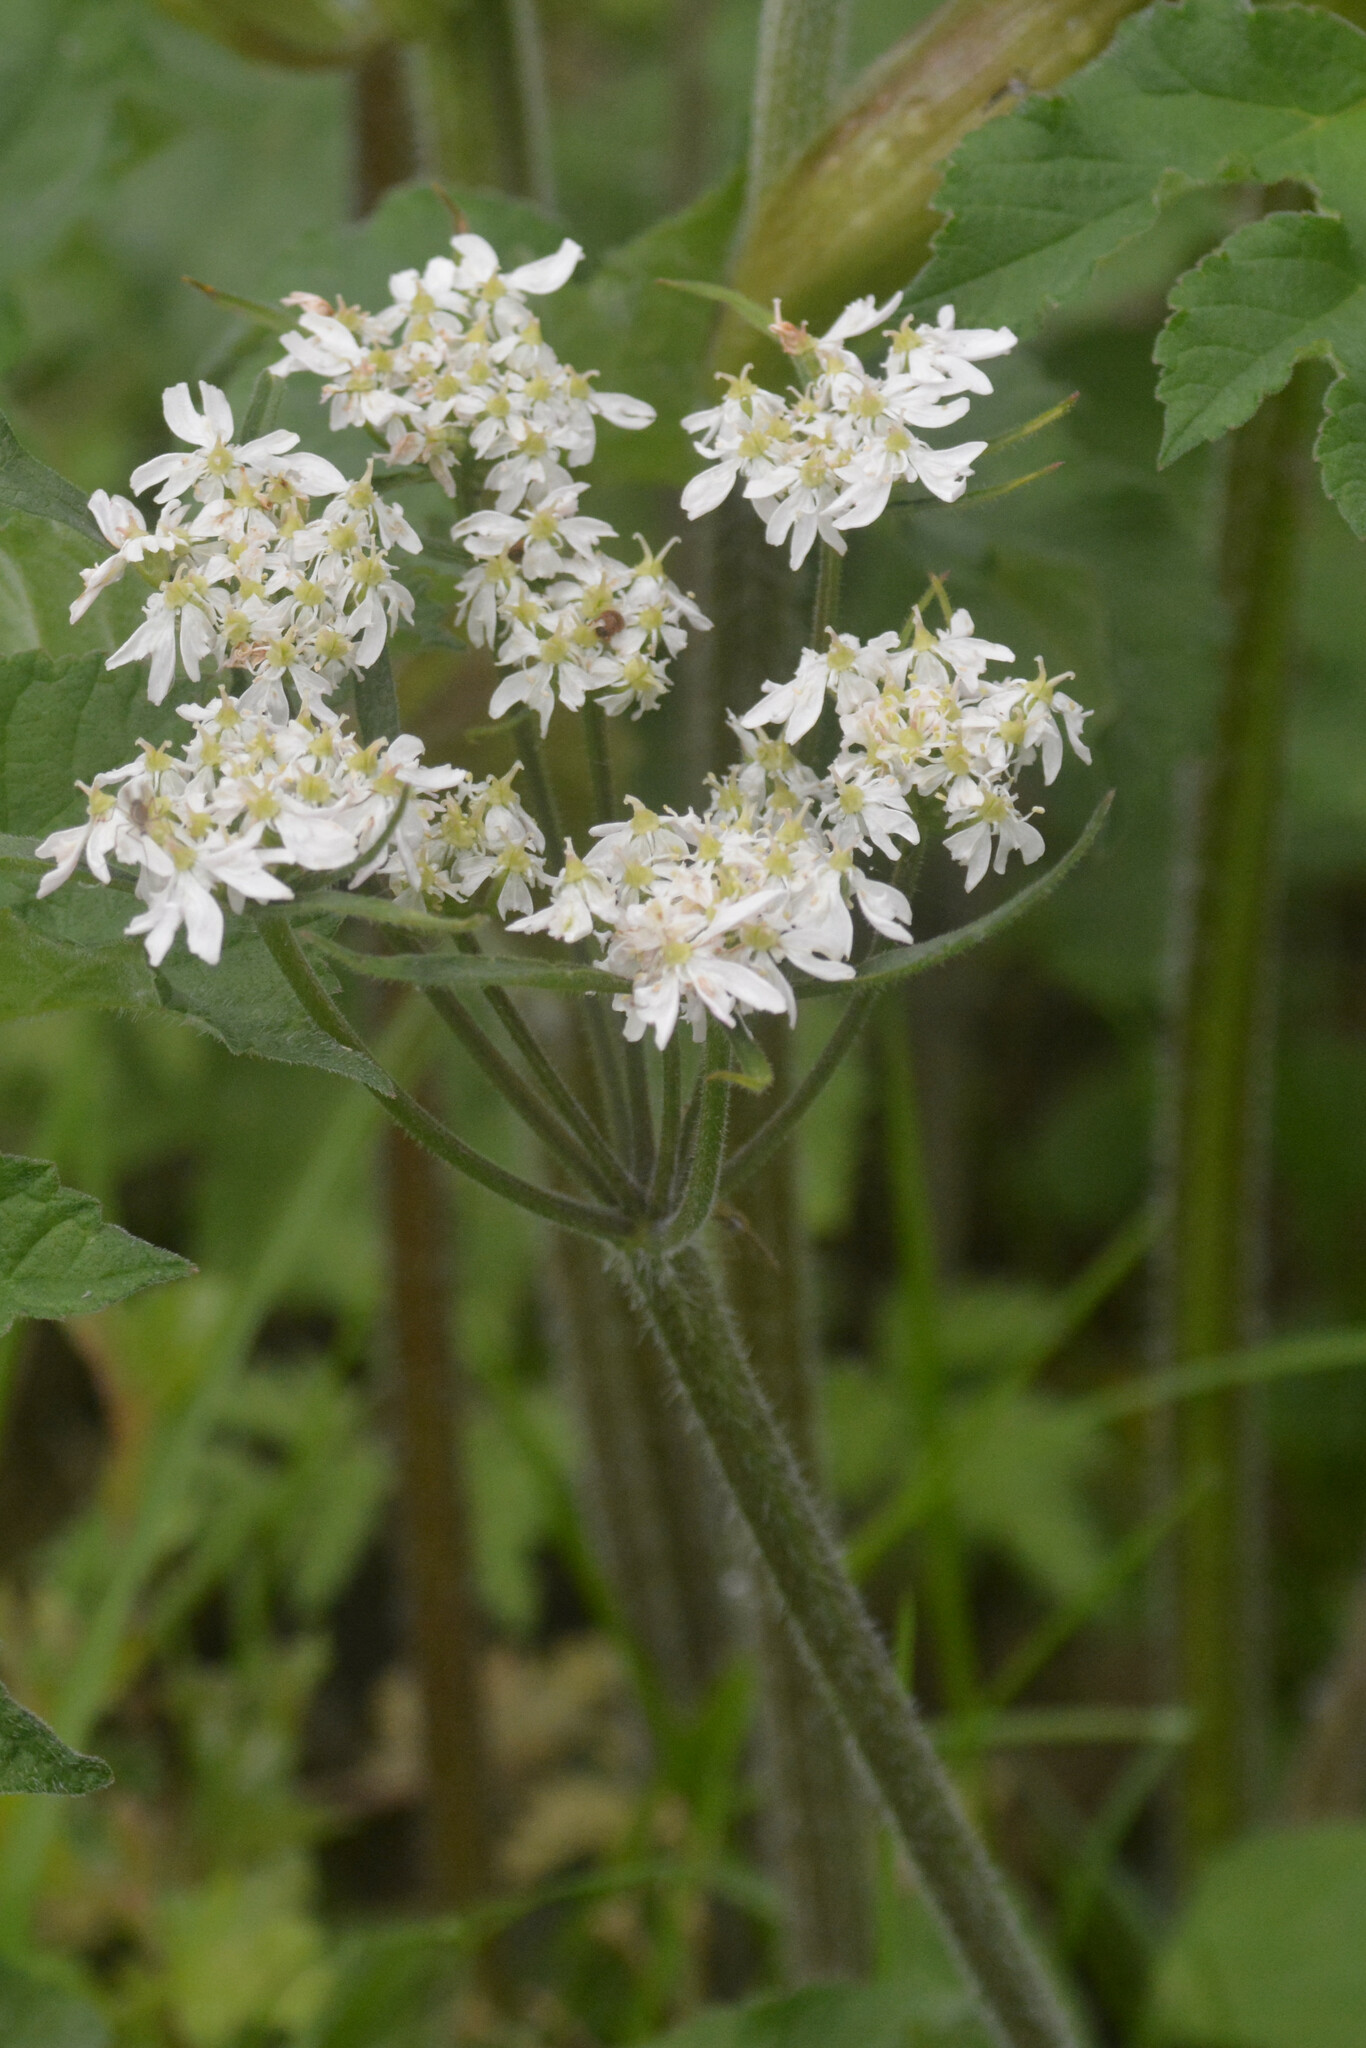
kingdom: Plantae
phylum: Tracheophyta
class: Magnoliopsida
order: Apiales
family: Apiaceae
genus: Heracleum
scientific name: Heracleum sphondylium
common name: Hogweed
